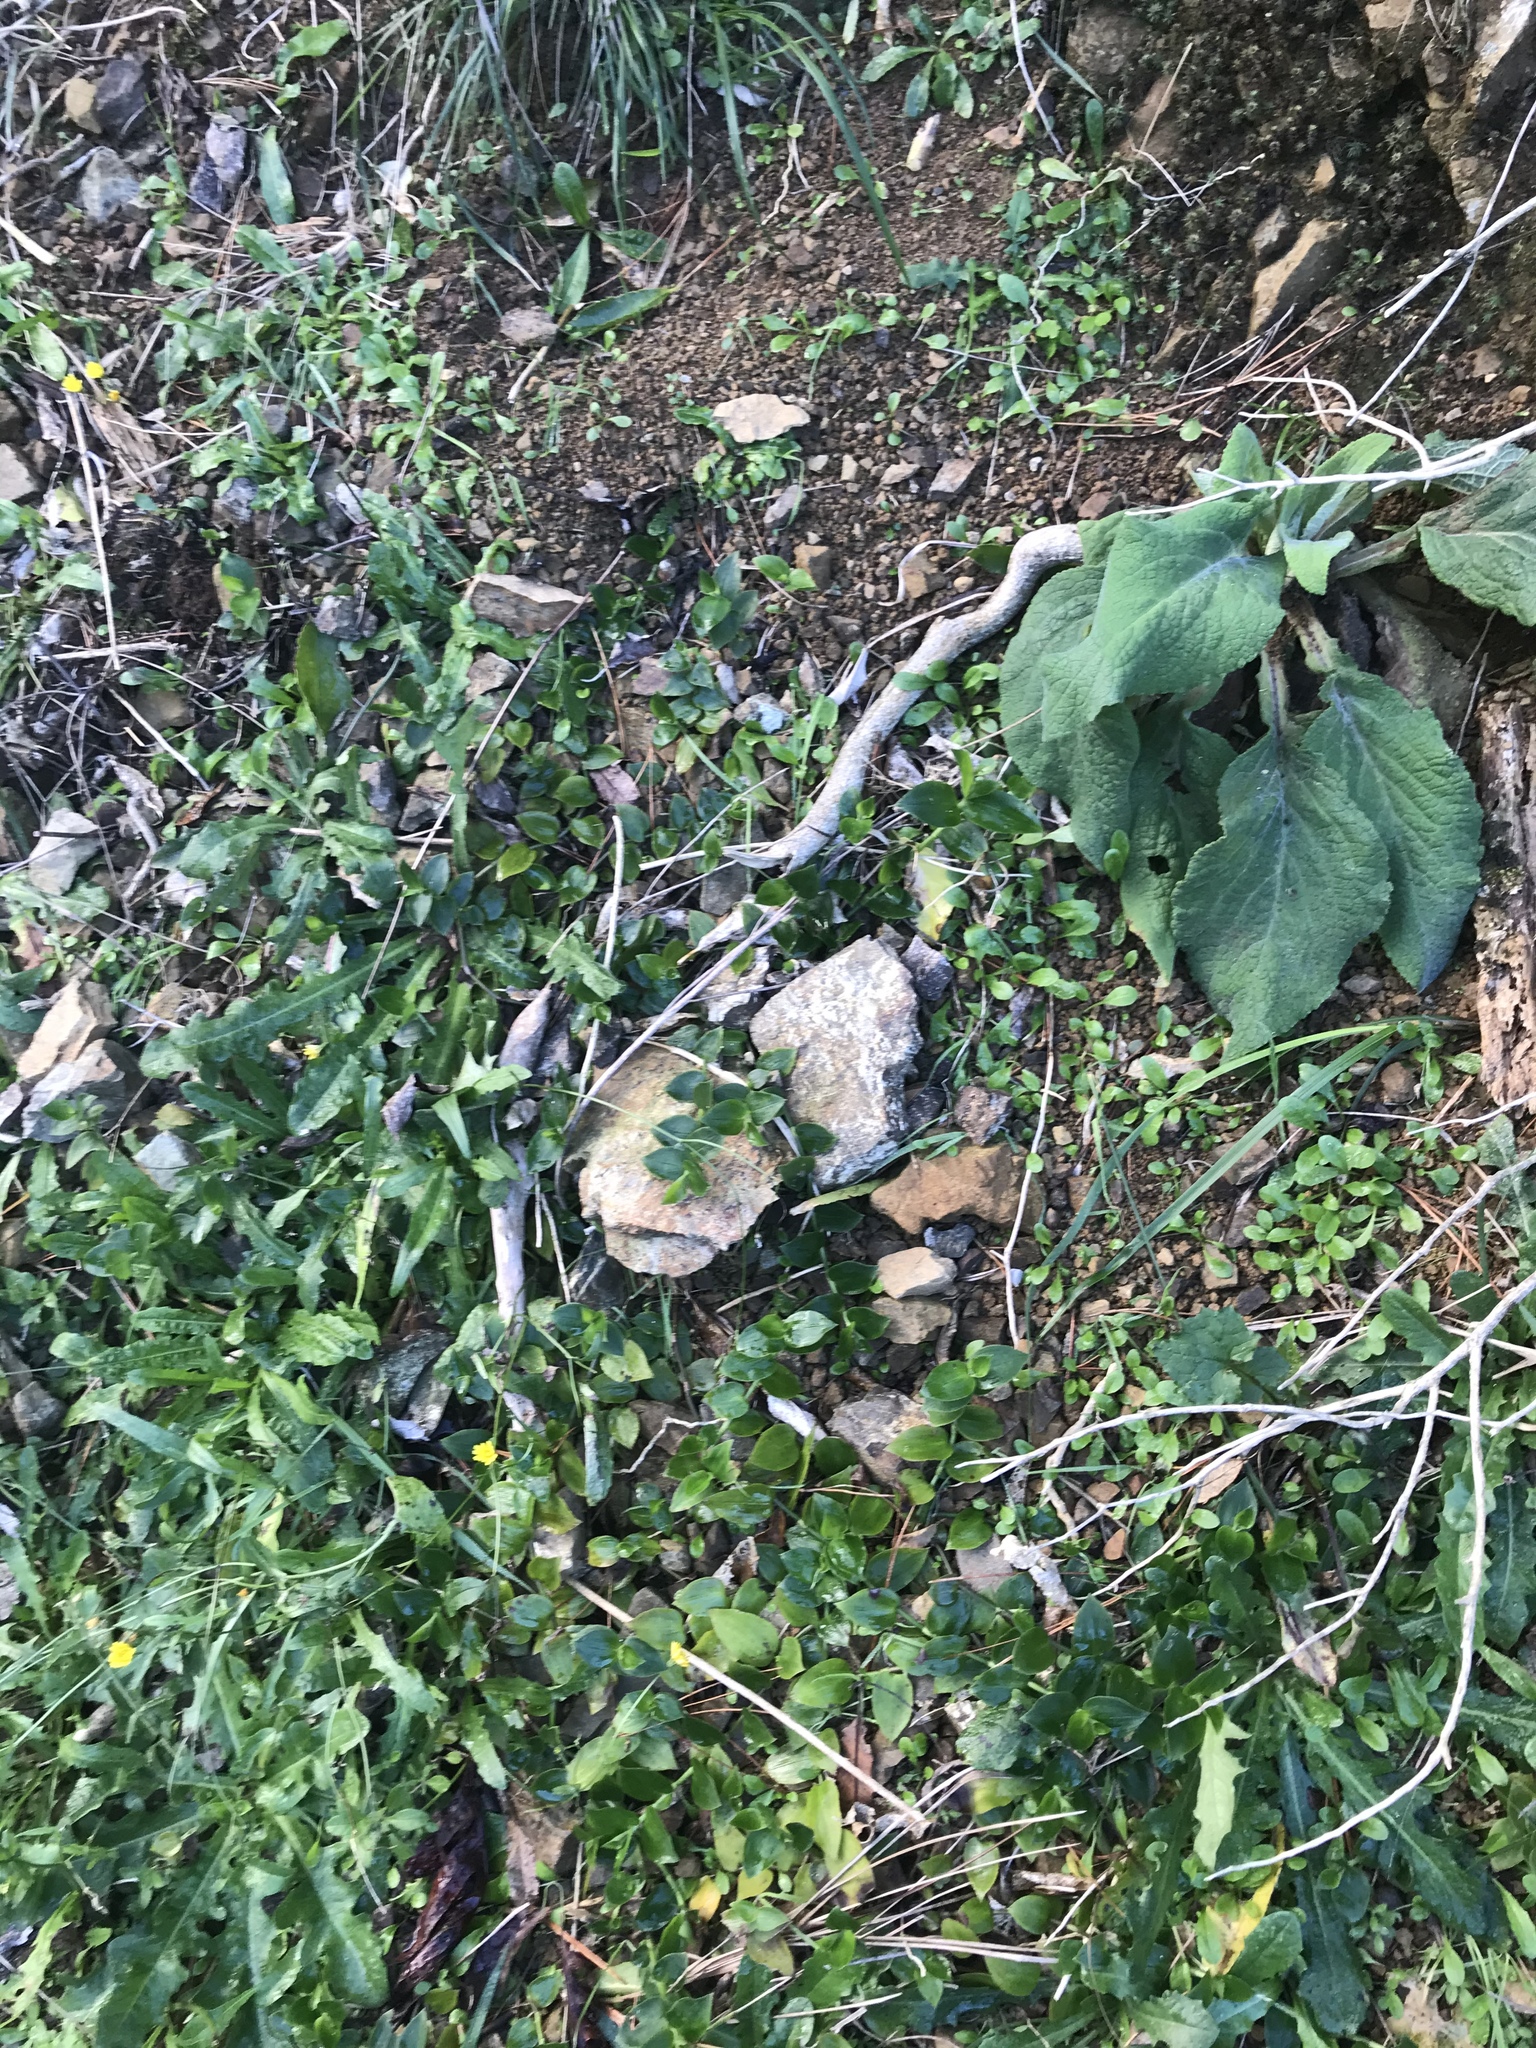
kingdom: Plantae
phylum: Tracheophyta
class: Liliopsida
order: Commelinales
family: Commelinaceae
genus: Tradescantia
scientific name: Tradescantia fluminensis
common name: Wandering-jew
